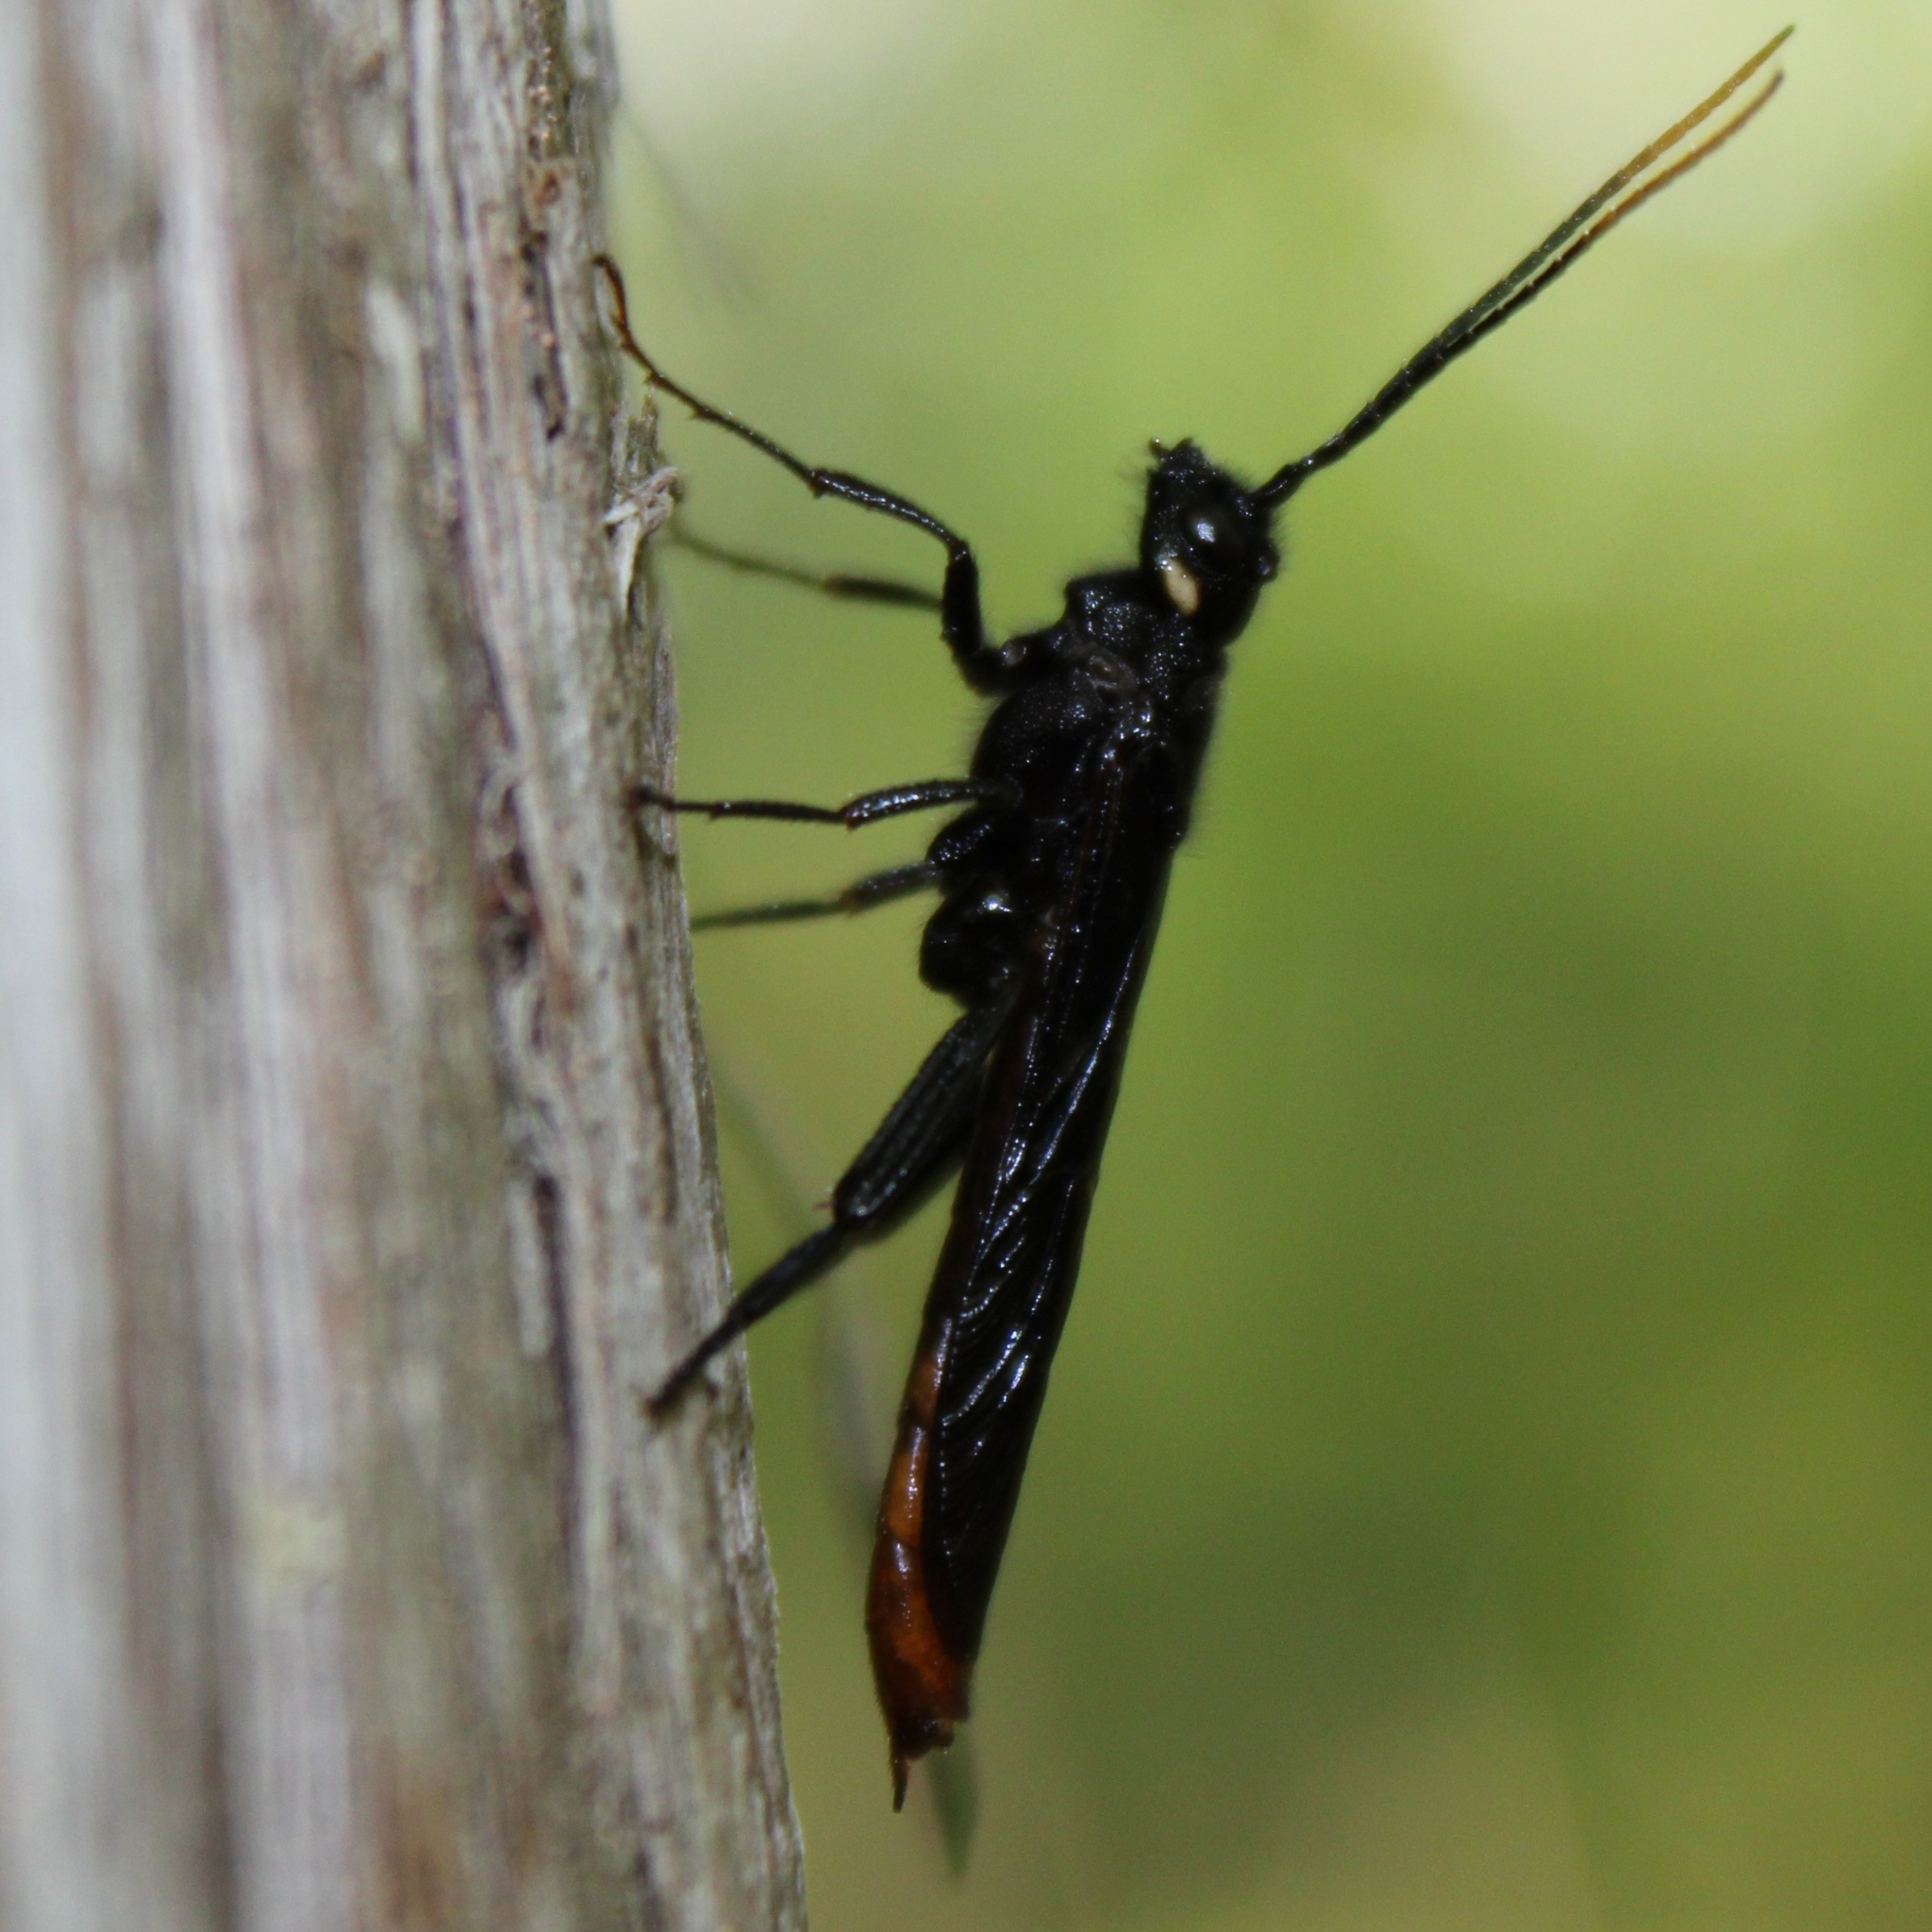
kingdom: Animalia
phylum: Arthropoda
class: Insecta
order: Hymenoptera
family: Siricidae
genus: Urocerus
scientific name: Urocerus cressoni
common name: Black-and-red horntail
